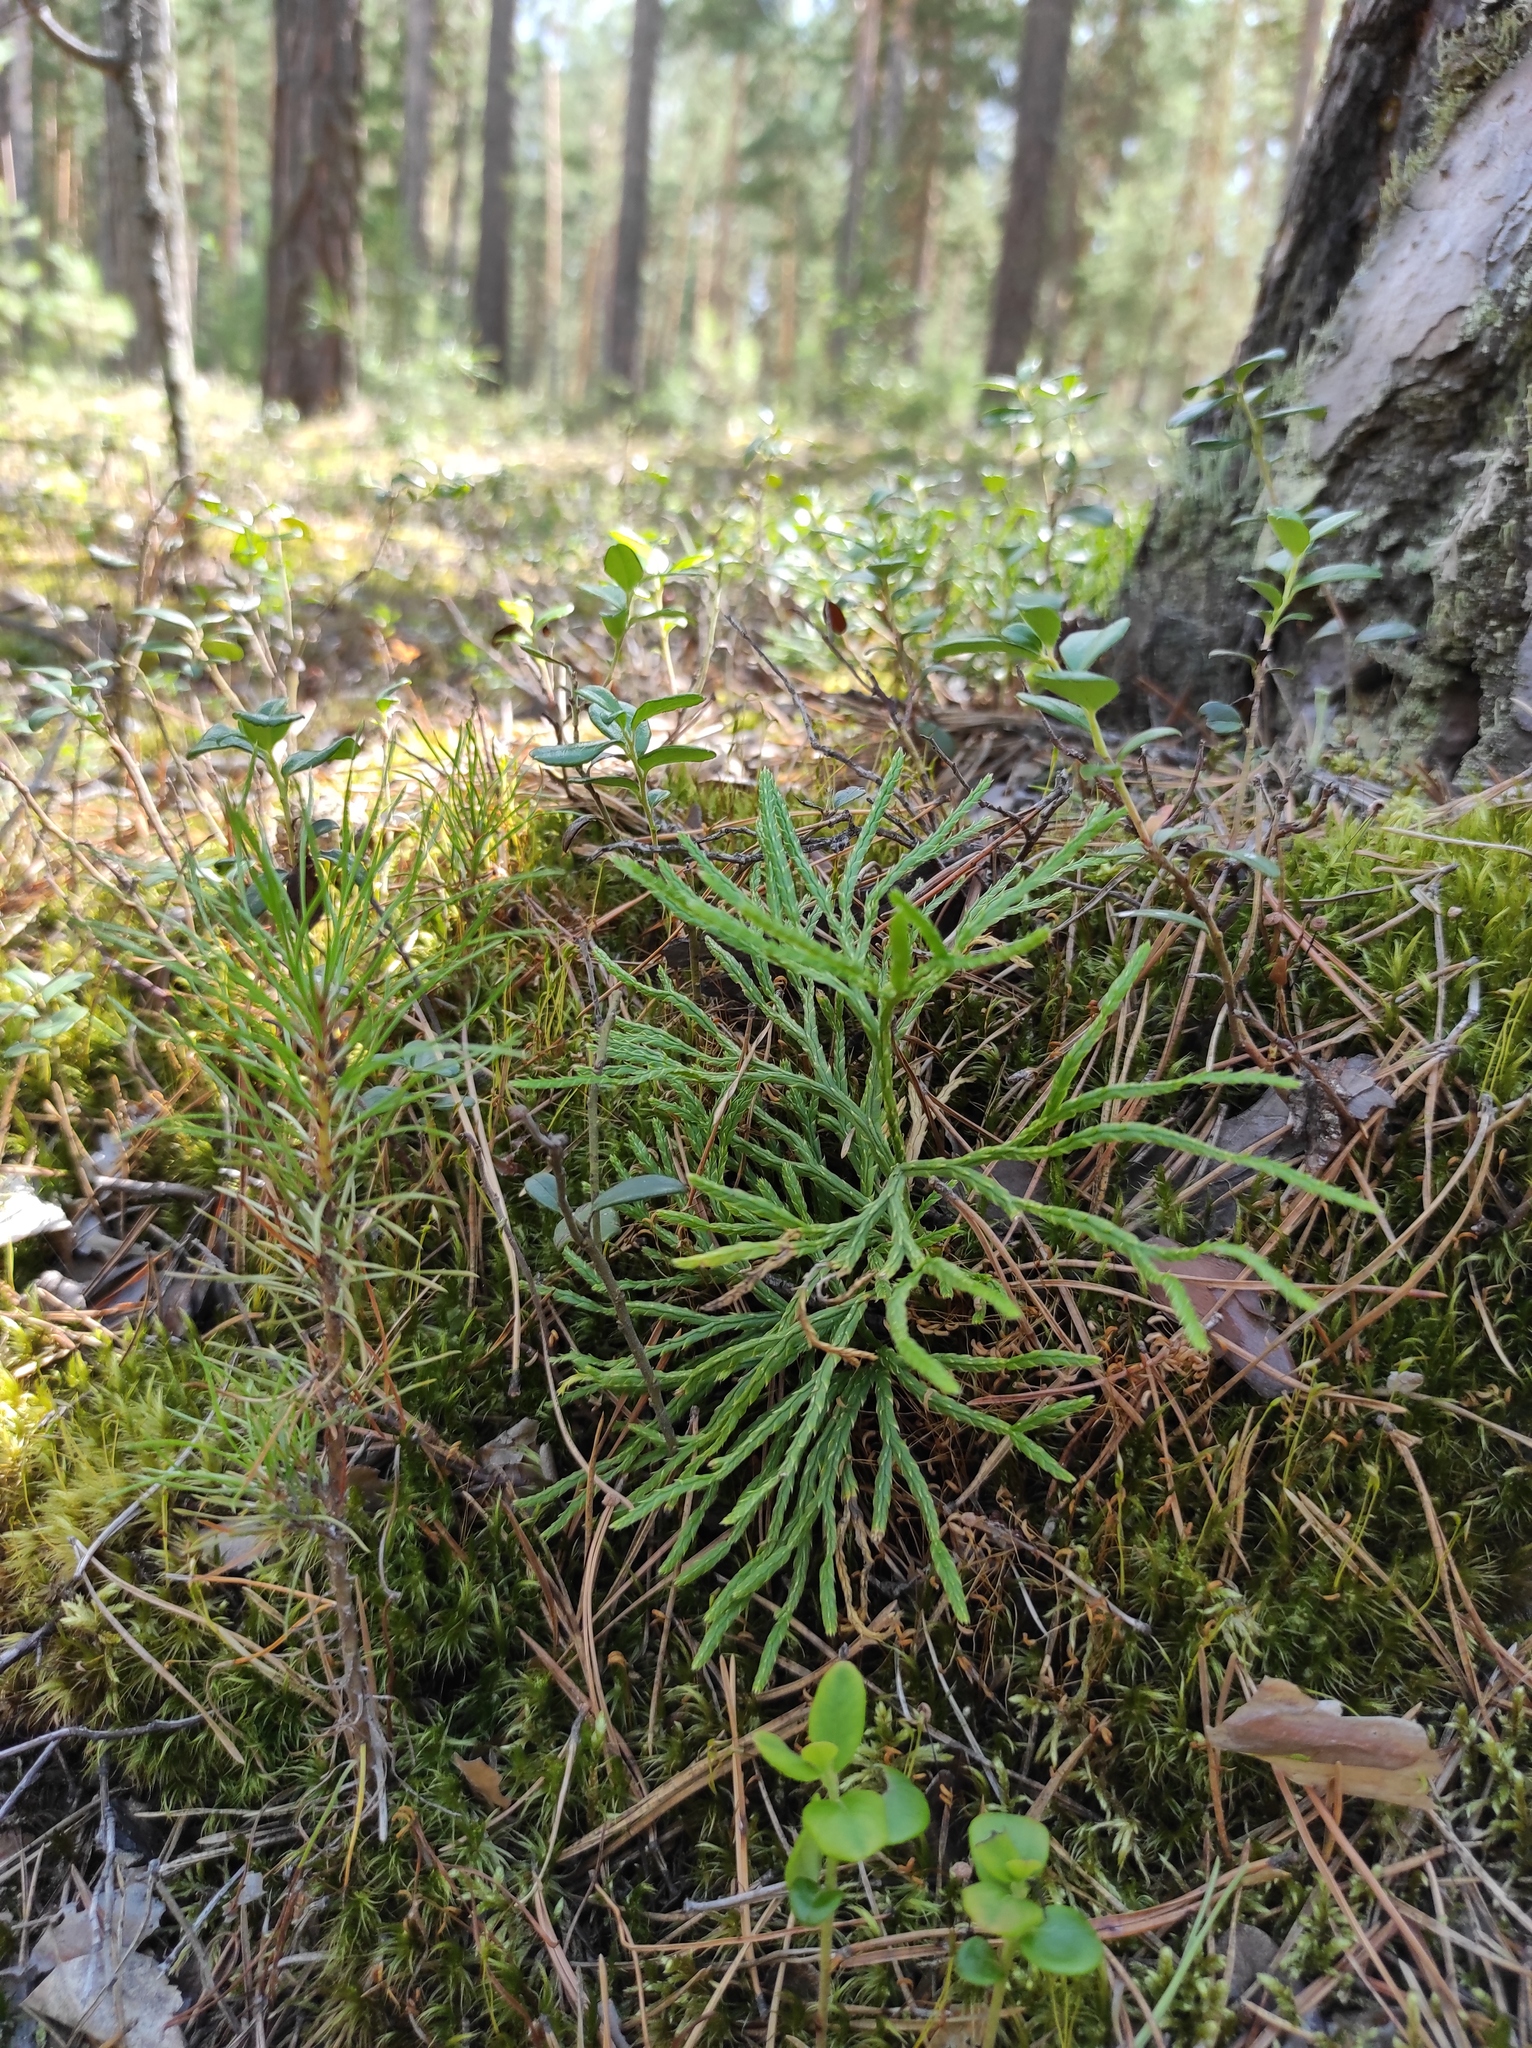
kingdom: Plantae
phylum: Tracheophyta
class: Lycopodiopsida
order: Lycopodiales
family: Lycopodiaceae
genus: Diphasiastrum
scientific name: Diphasiastrum complanatum
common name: Northern running-pine
